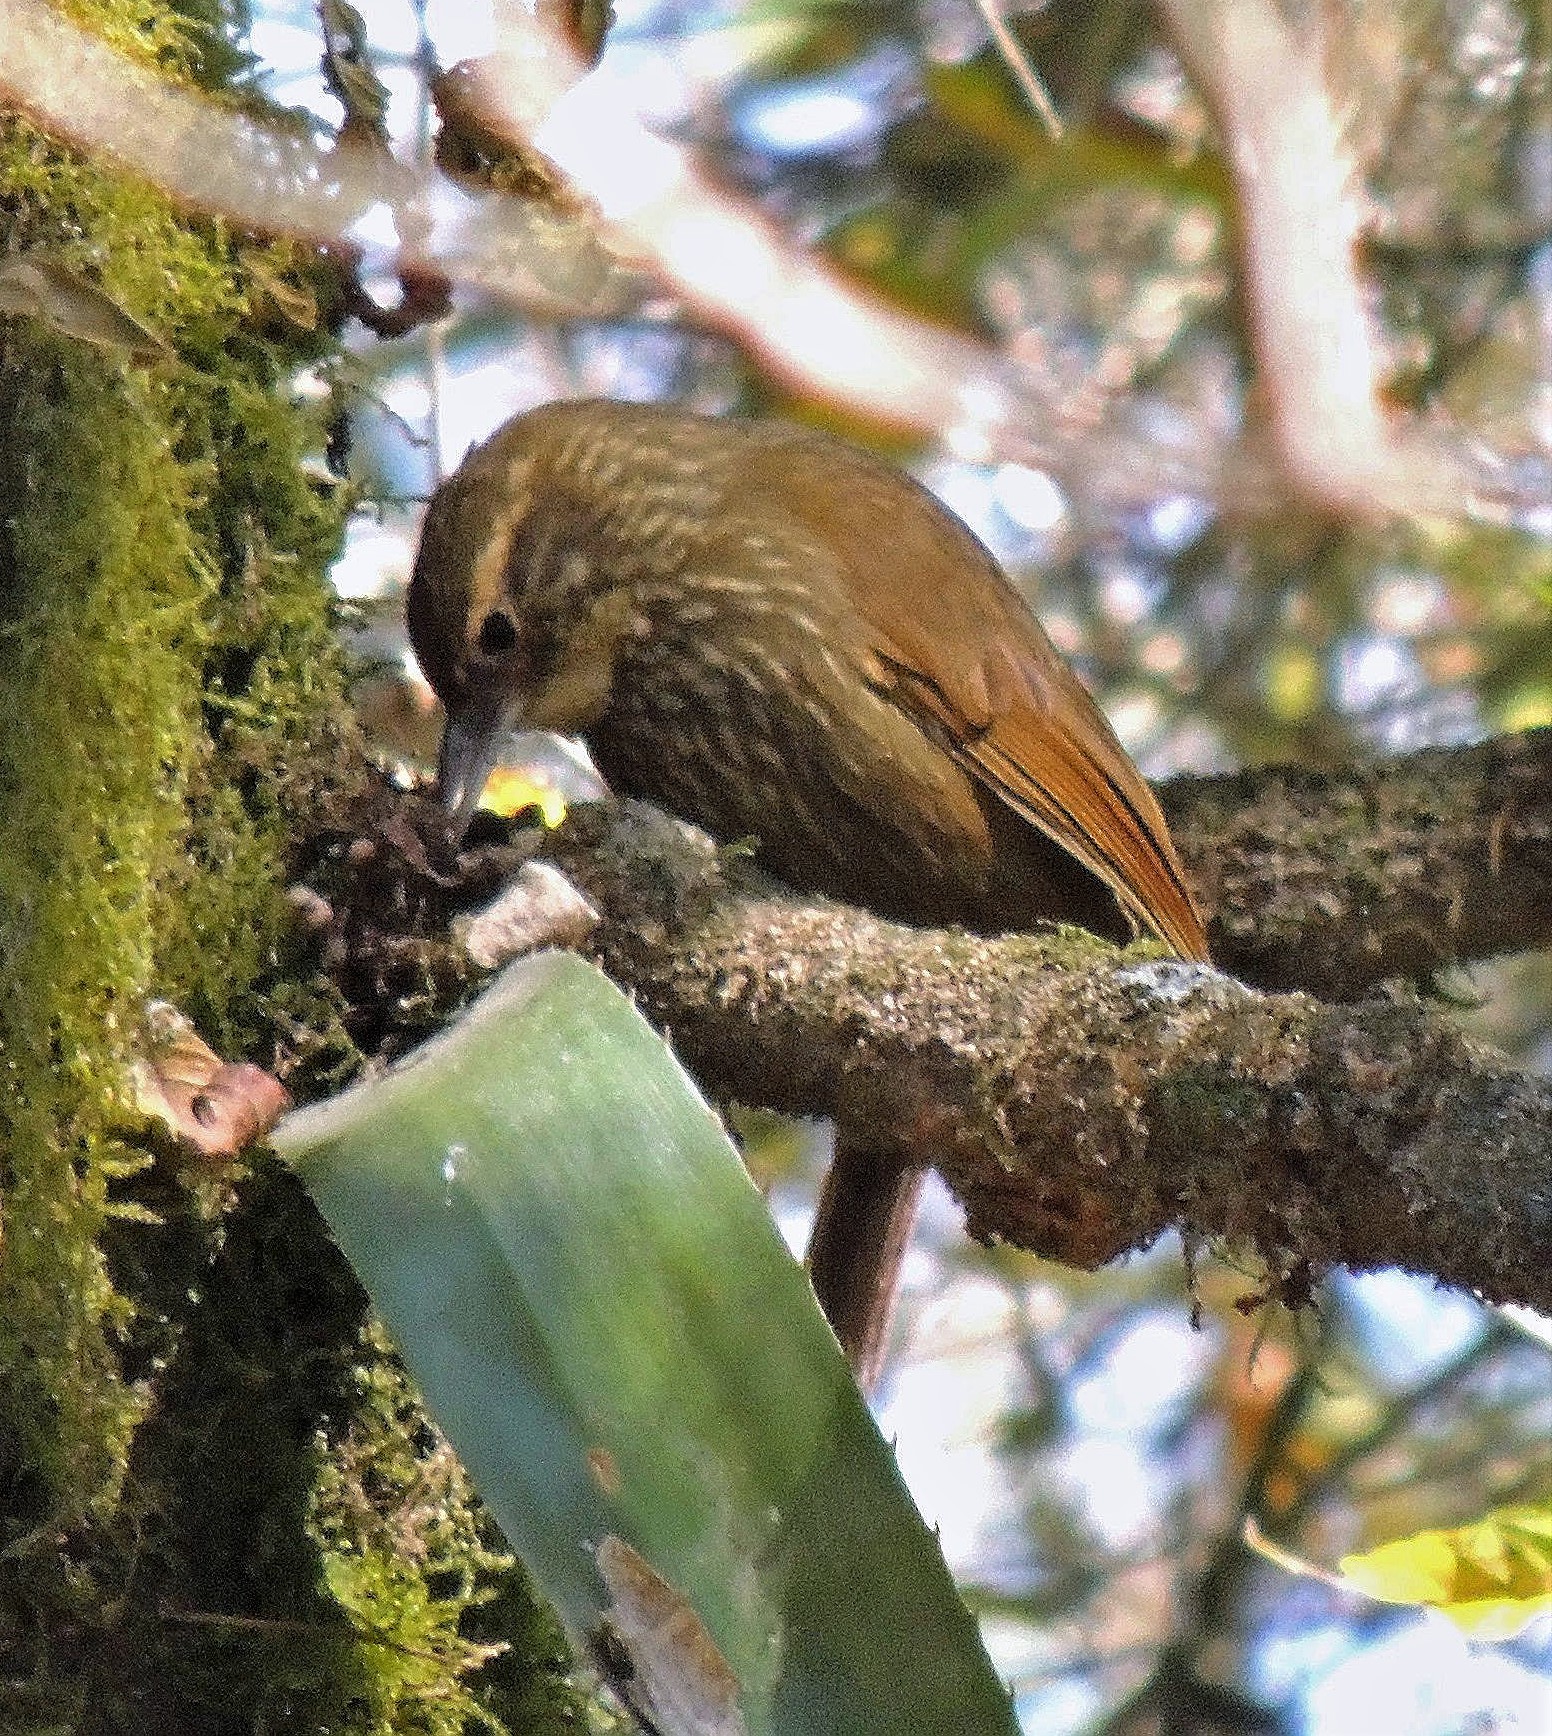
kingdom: Animalia
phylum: Chordata
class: Aves
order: Passeriformes
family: Furnariidae
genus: Syndactyla
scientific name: Syndactyla rufosuperciliata
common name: Buff-browed foliage-gleaner
